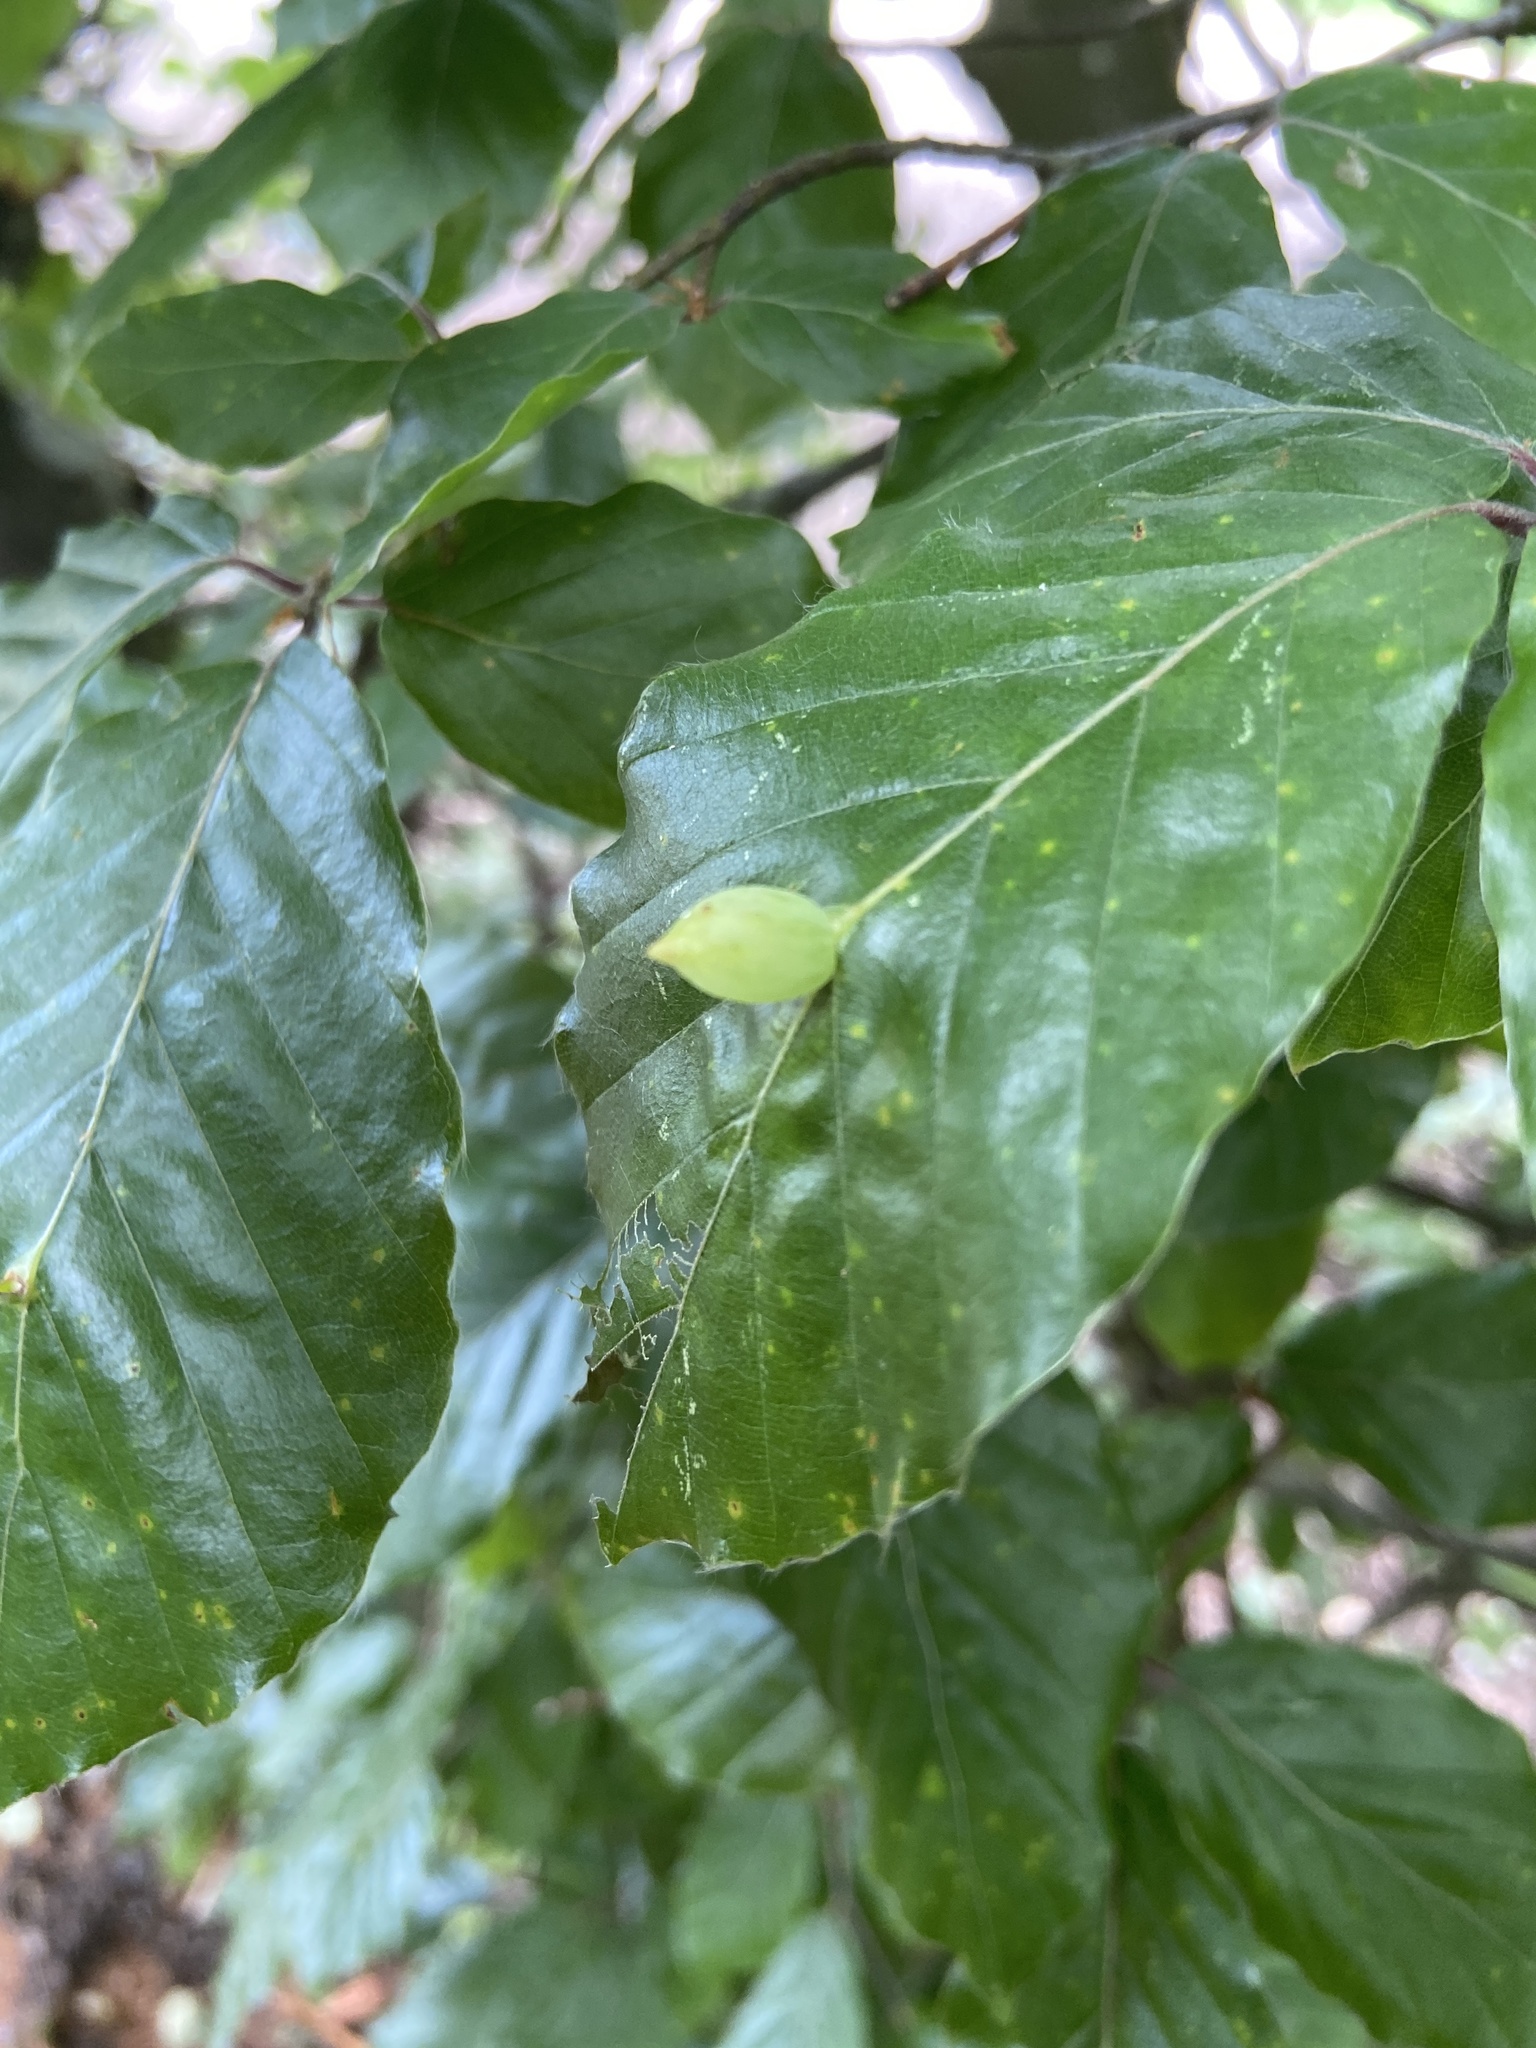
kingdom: Animalia
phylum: Arthropoda
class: Insecta
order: Diptera
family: Cecidomyiidae
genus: Mikiola
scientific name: Mikiola fagi
